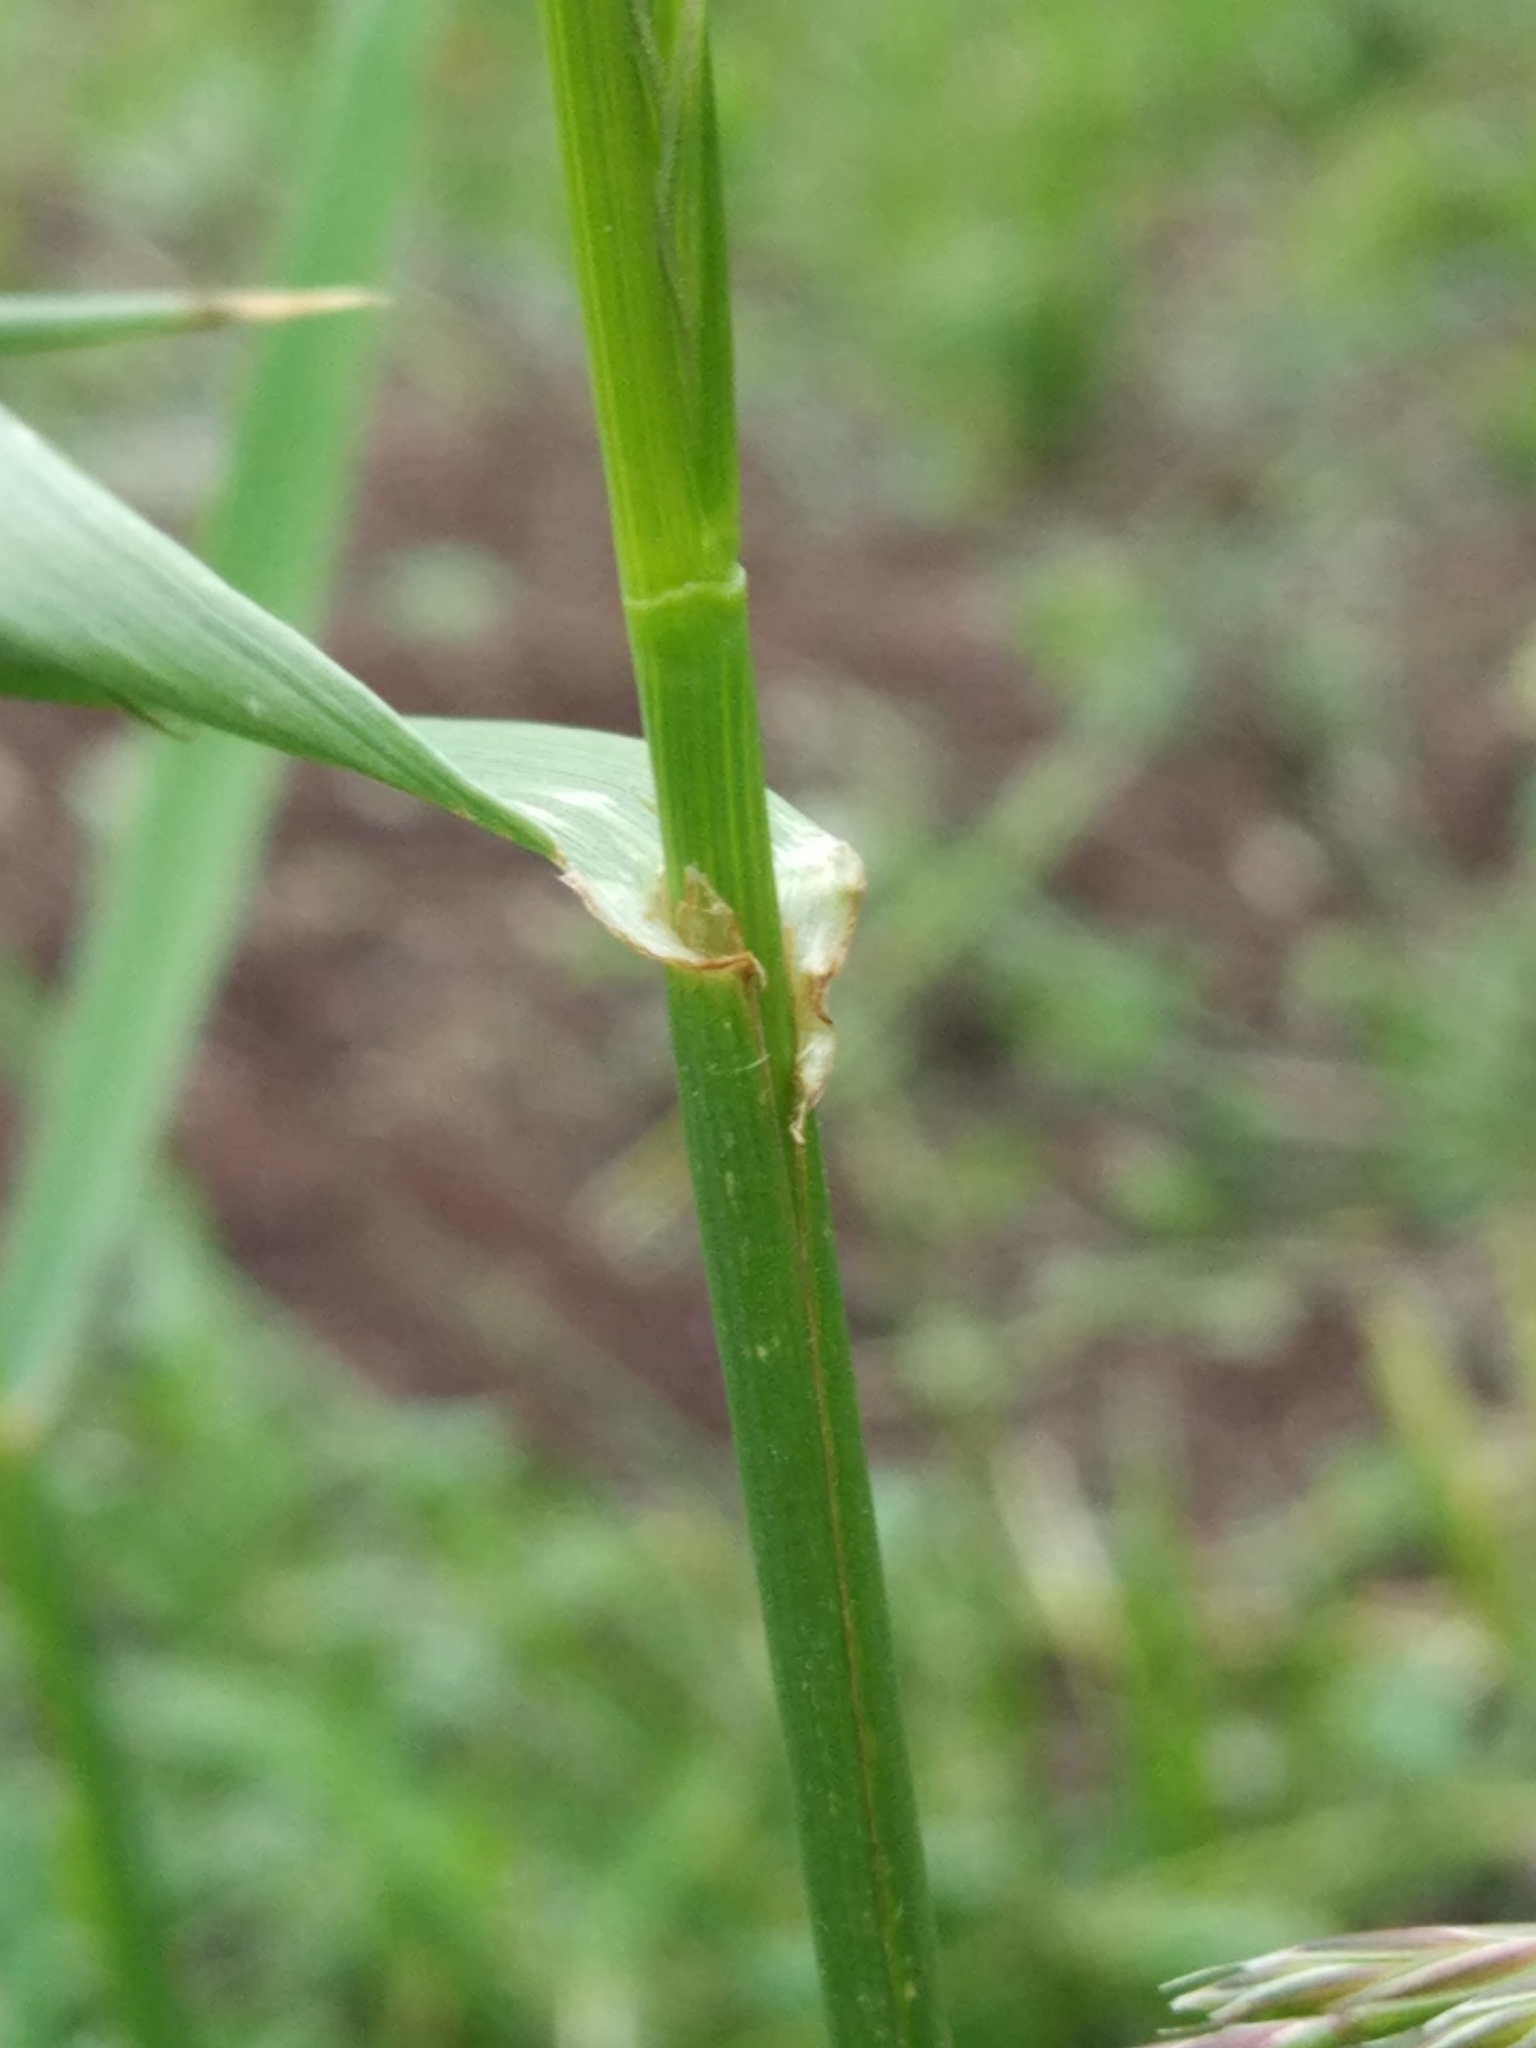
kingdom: Plantae
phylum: Tracheophyta
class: Liliopsida
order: Poales
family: Poaceae
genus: Lolium
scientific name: Lolium multiflorum
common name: Annual ryegrass
